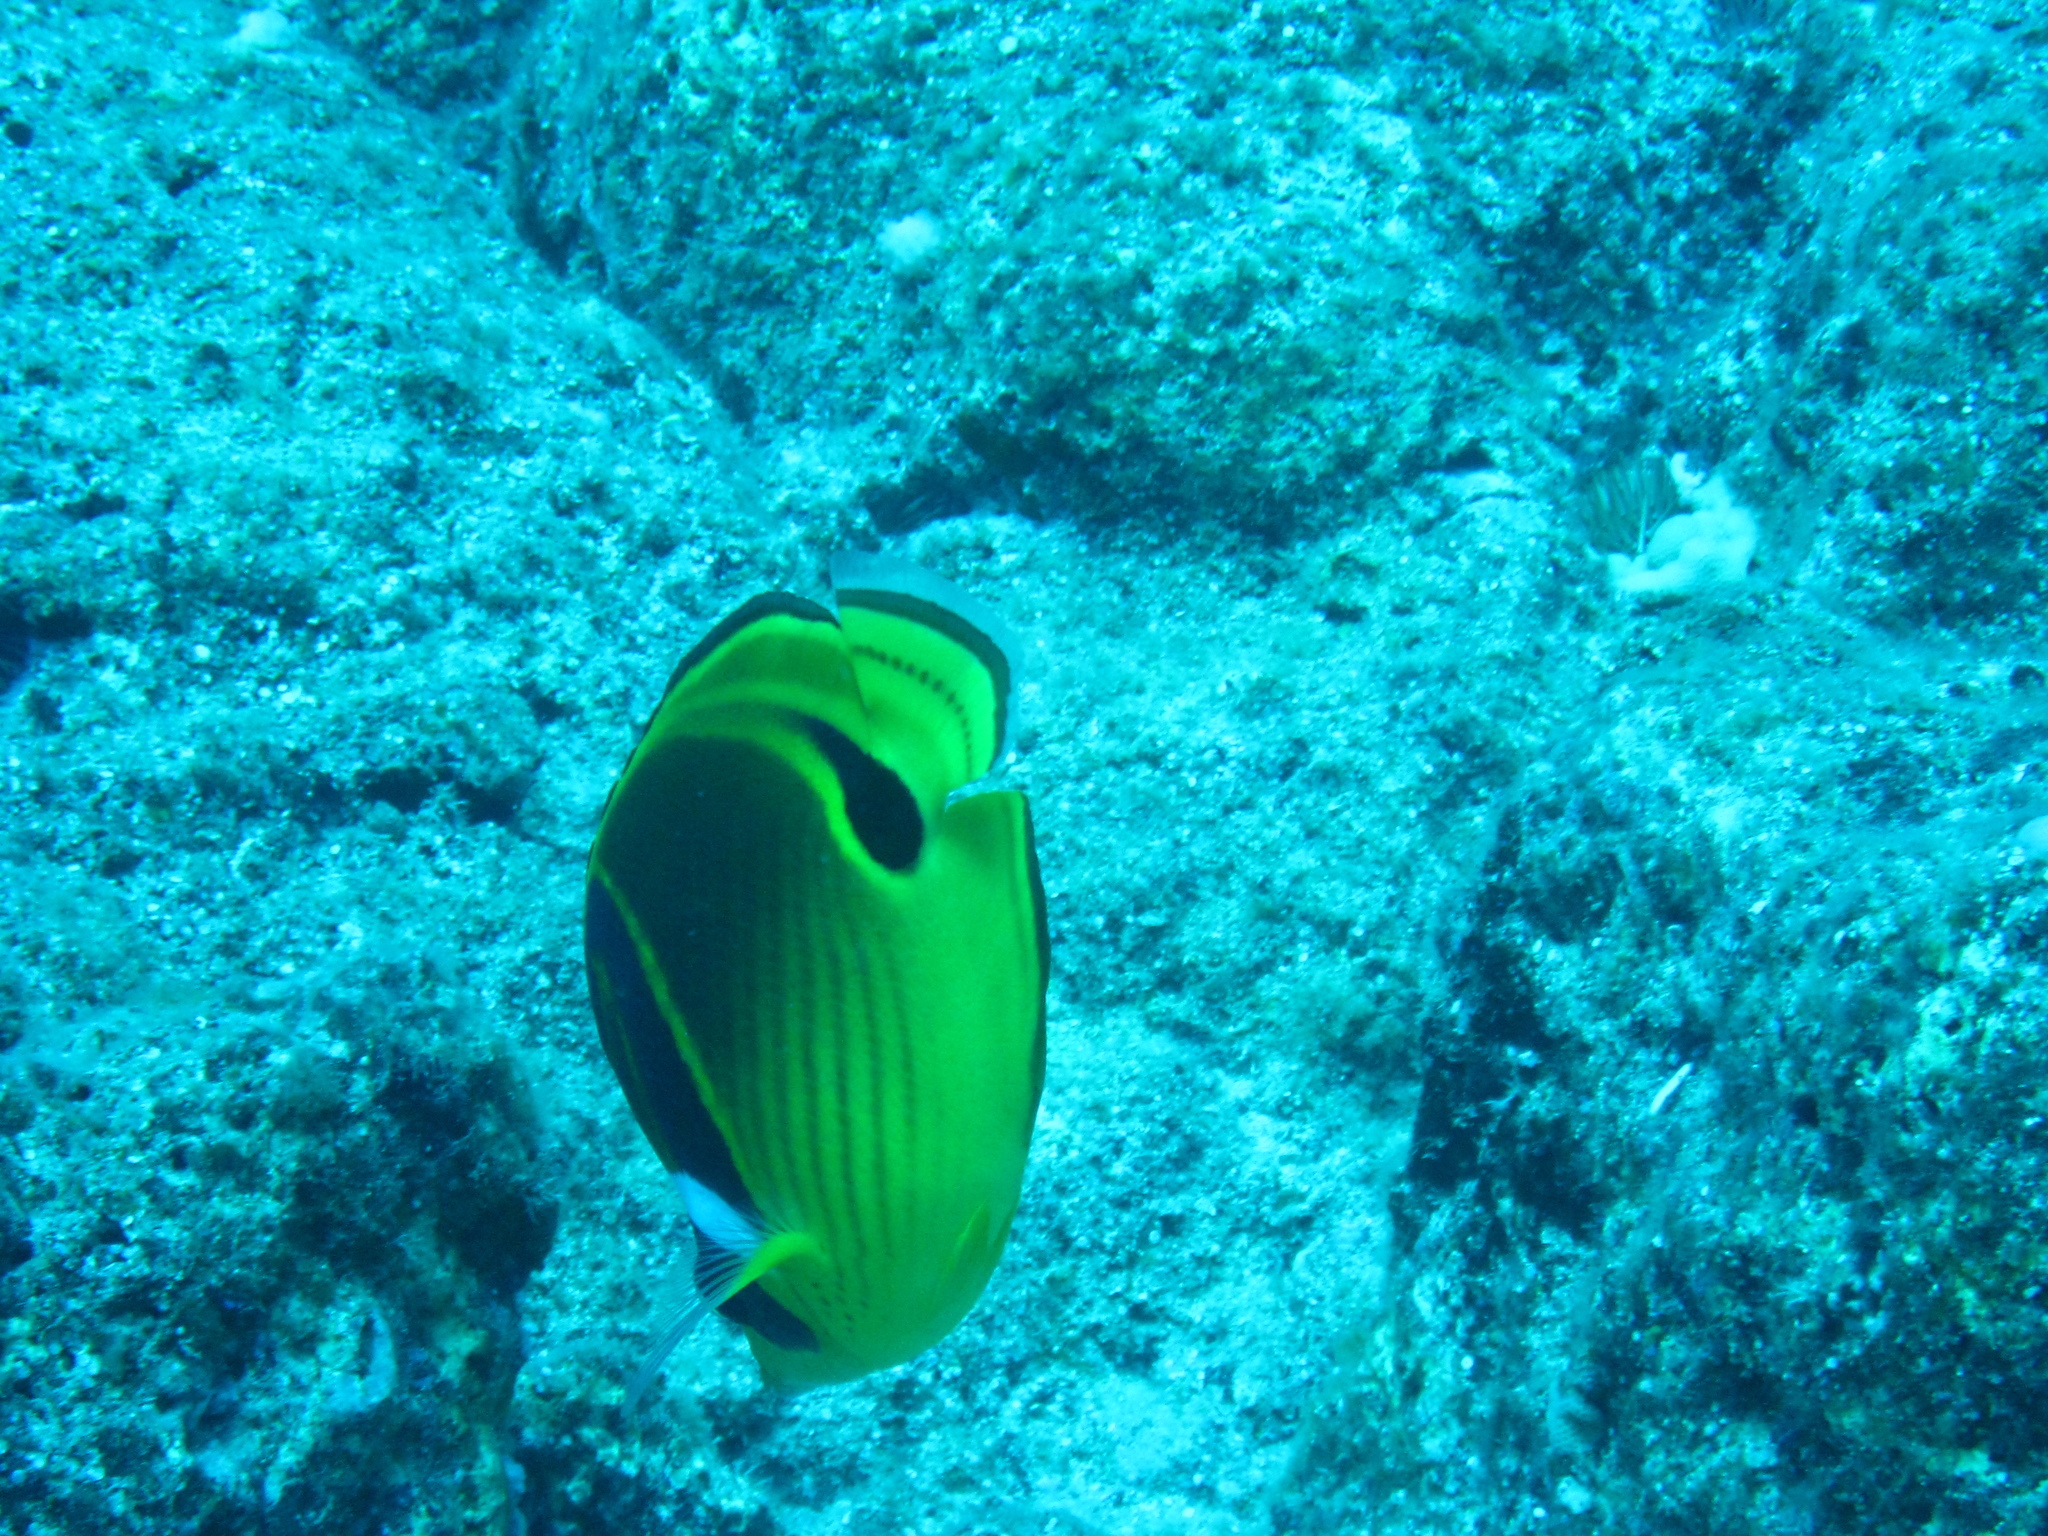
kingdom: Animalia
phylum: Chordata
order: Perciformes
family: Chaetodontidae
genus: Chaetodon
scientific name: Chaetodon lunula
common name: Raccoon butterflyfish
